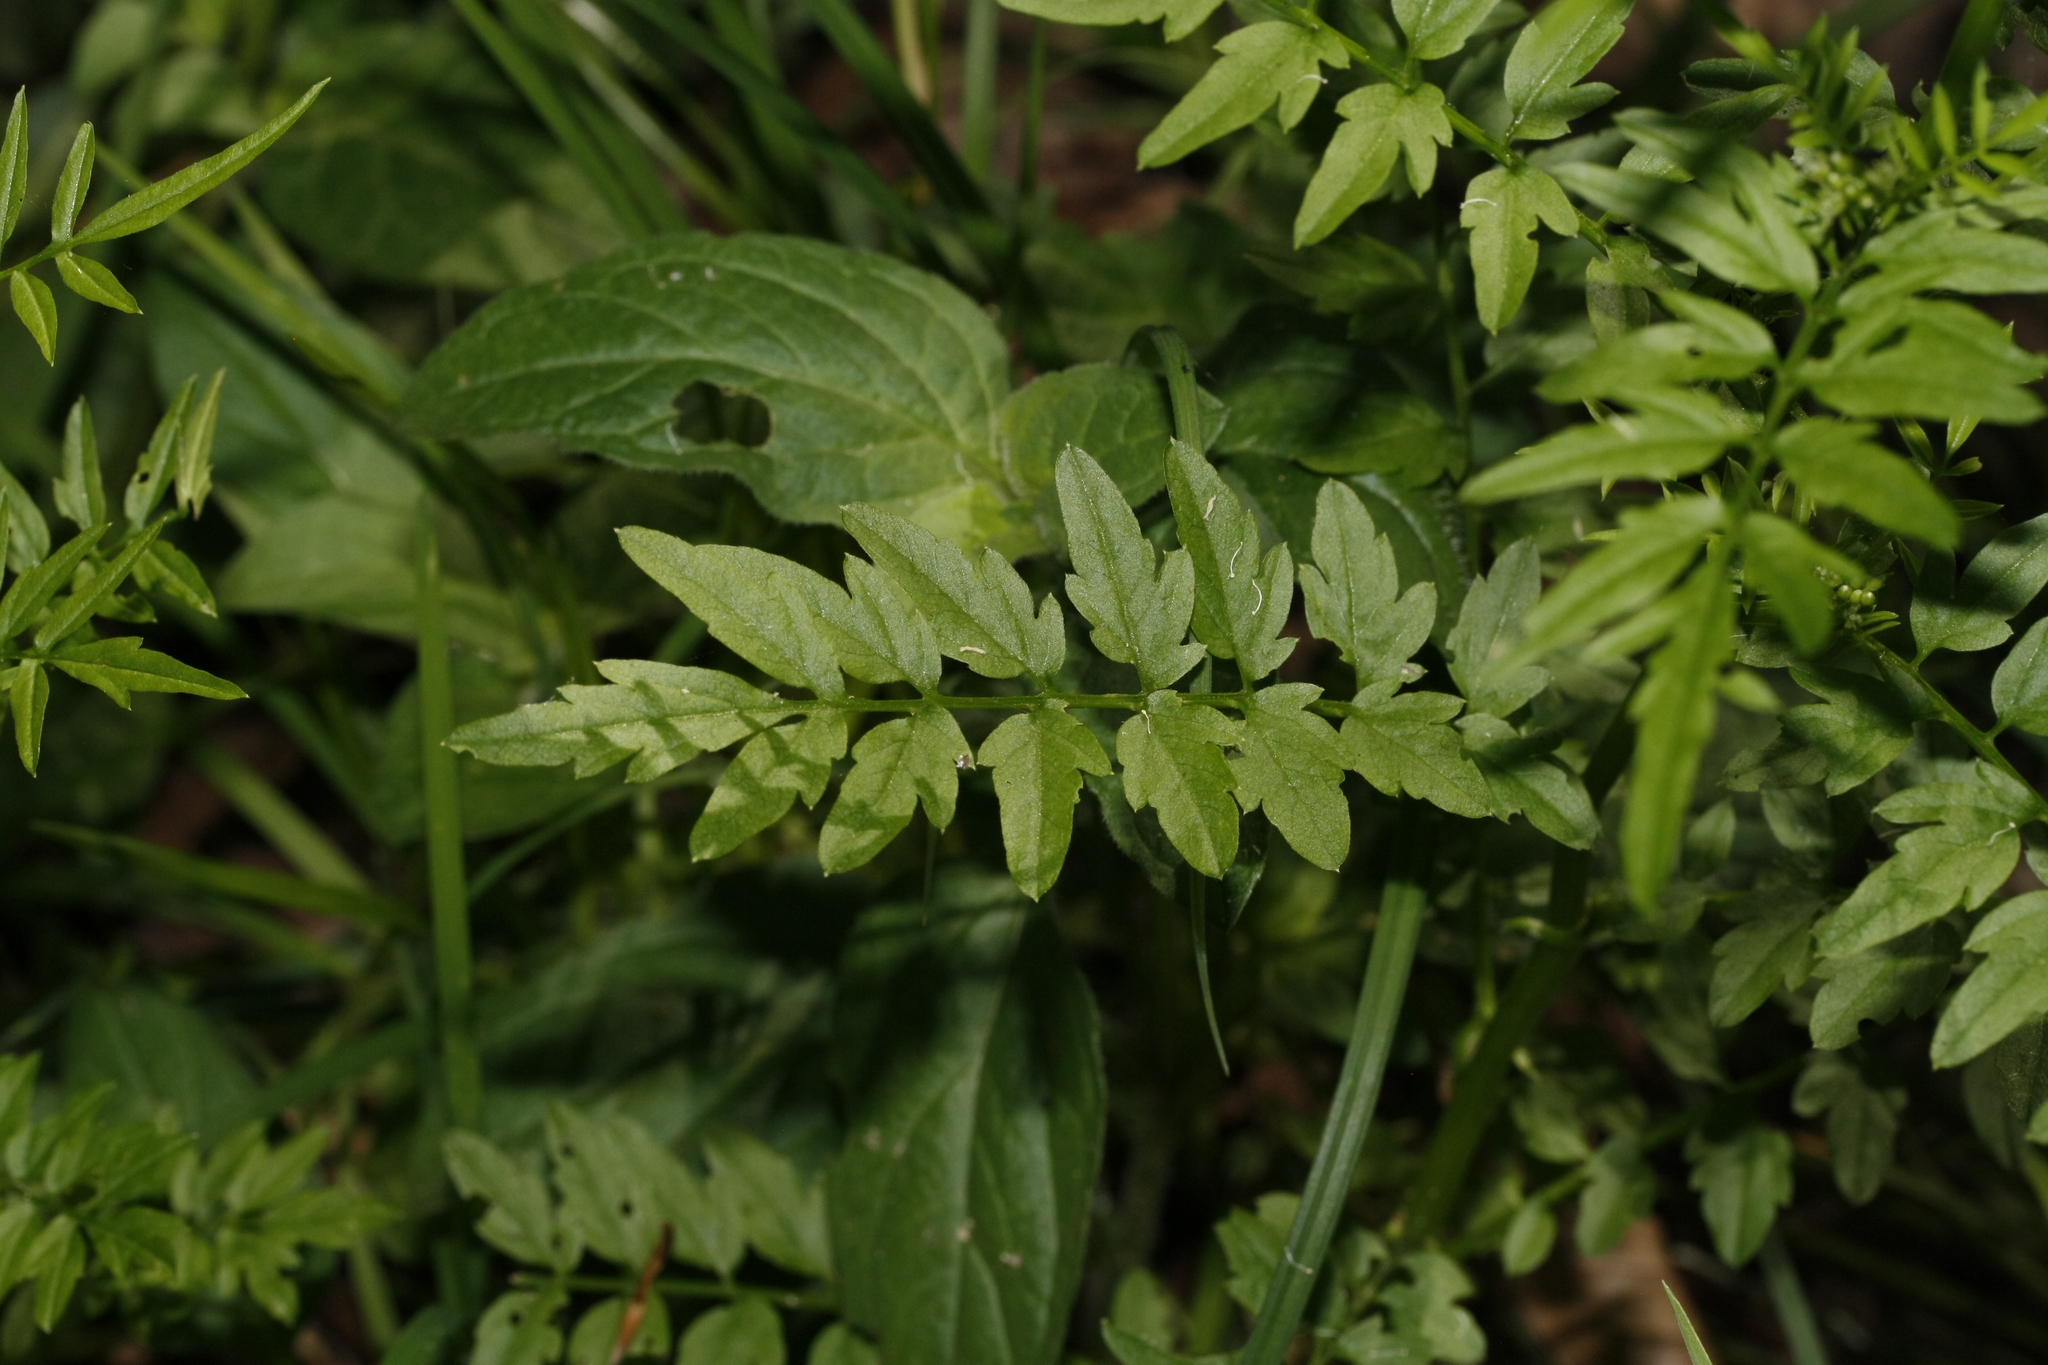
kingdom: Plantae
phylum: Tracheophyta
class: Magnoliopsida
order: Brassicales
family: Brassicaceae
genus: Cardamine
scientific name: Cardamine impatiens
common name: Narrow-leaved bitter-cress
